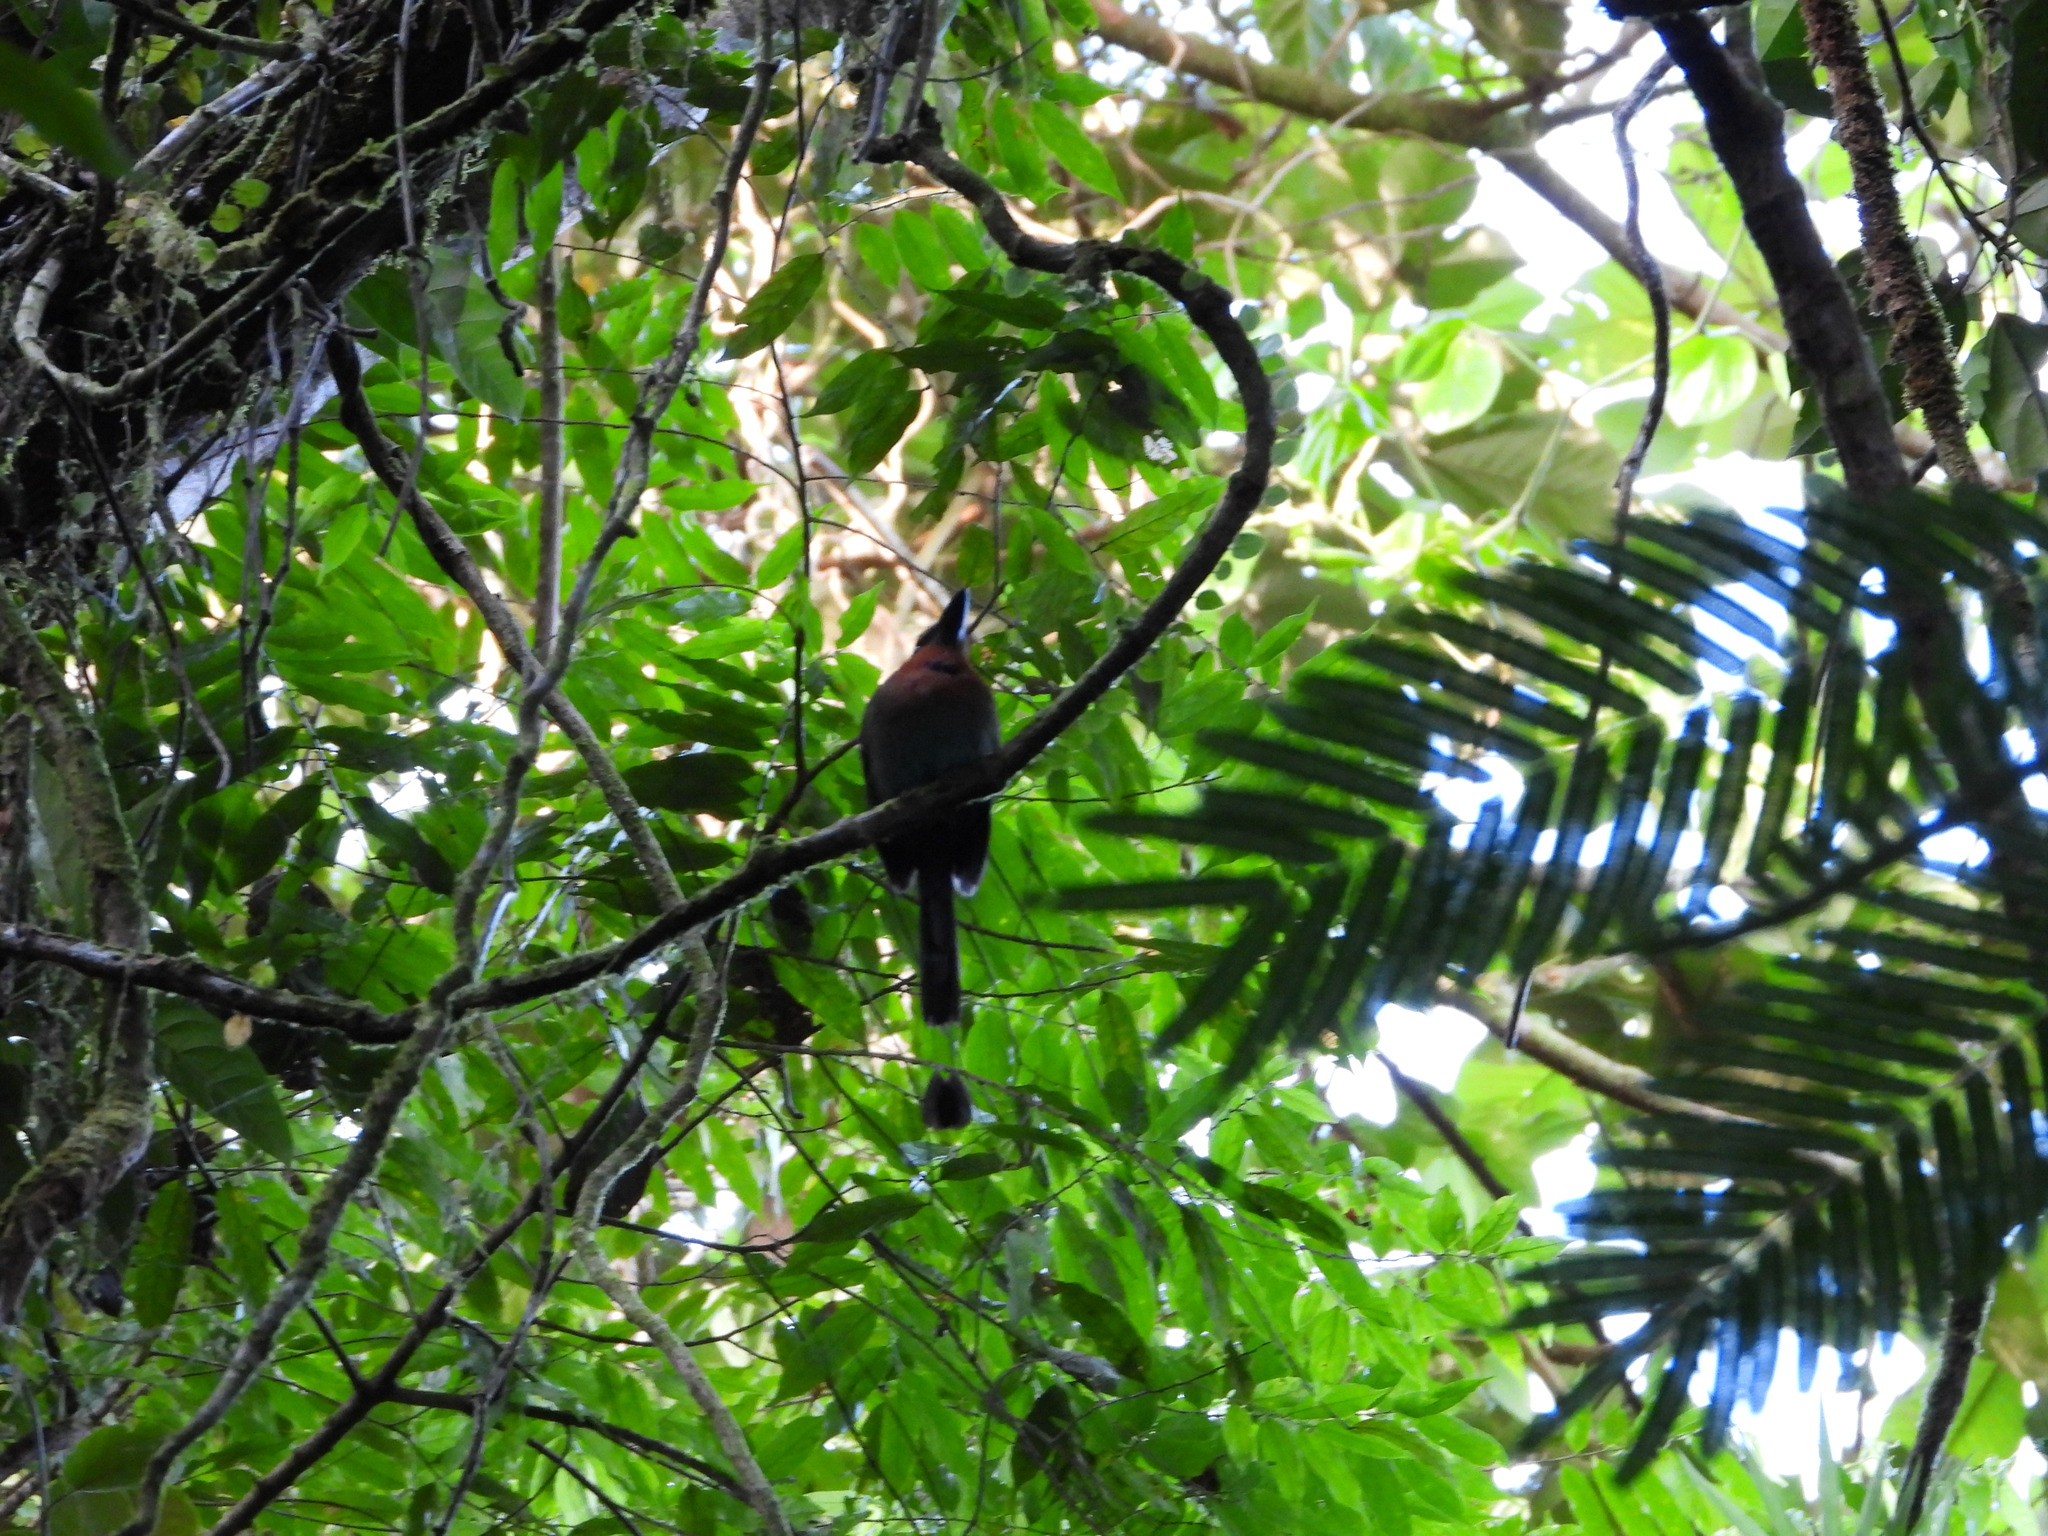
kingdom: Animalia
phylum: Chordata
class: Aves
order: Coraciiformes
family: Momotidae
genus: Electron
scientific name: Electron platyrhynchum
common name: Broad-billed motmot
